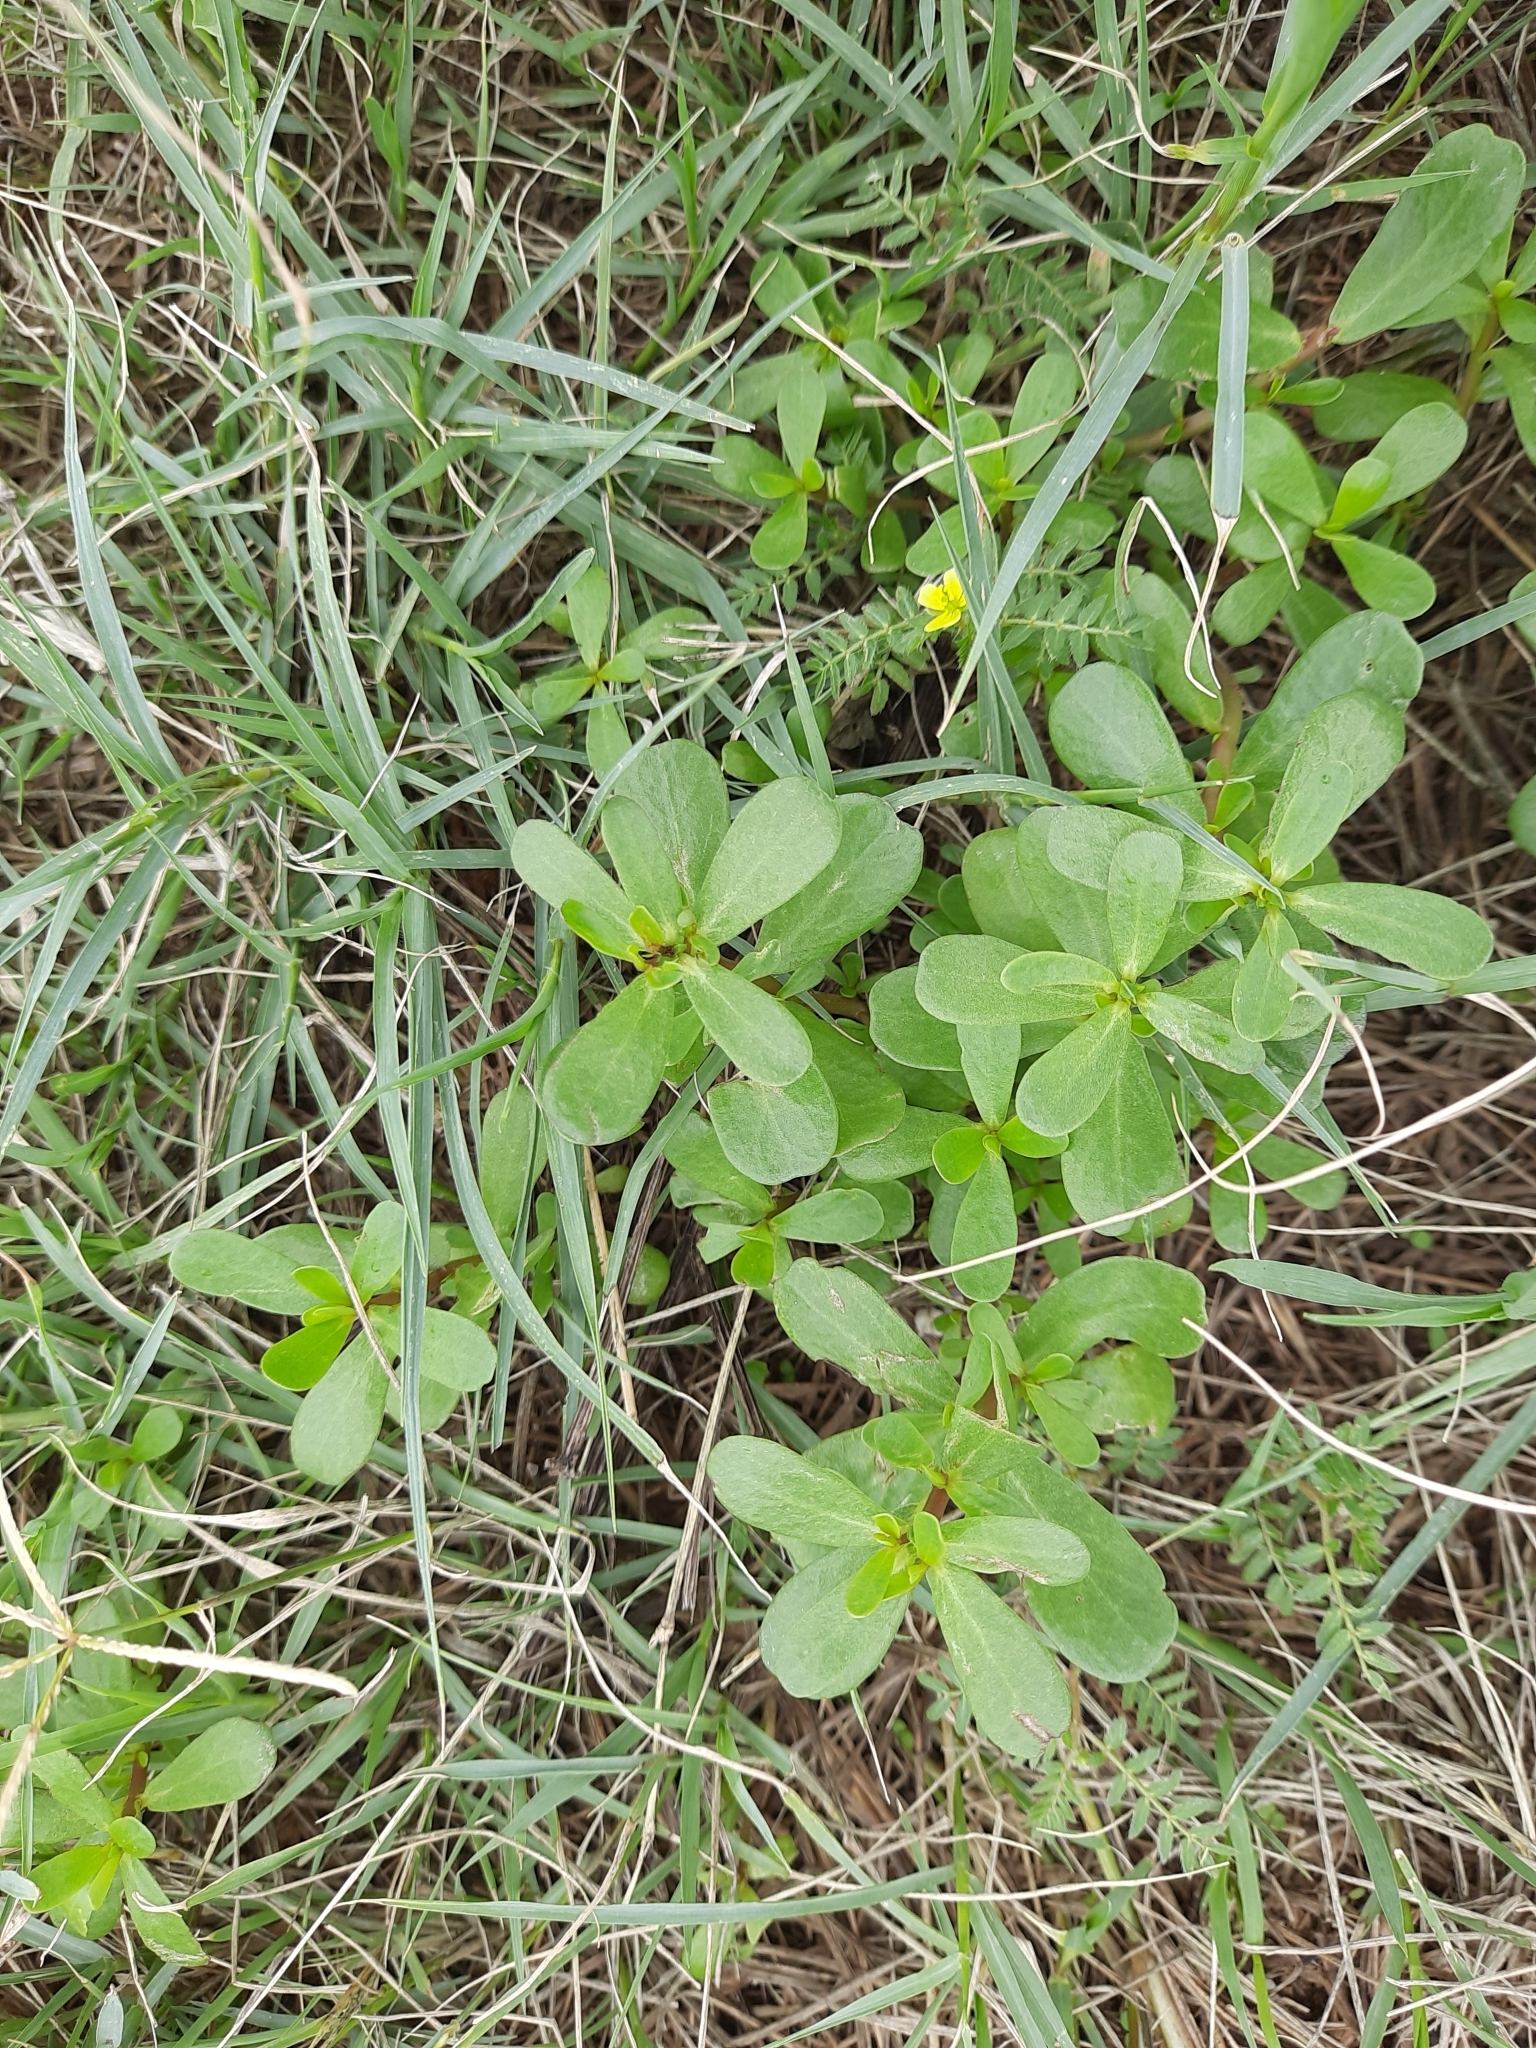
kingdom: Plantae
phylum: Tracheophyta
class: Magnoliopsida
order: Caryophyllales
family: Portulacaceae
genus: Portulaca
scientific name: Portulaca oleracea
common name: Common purslane
